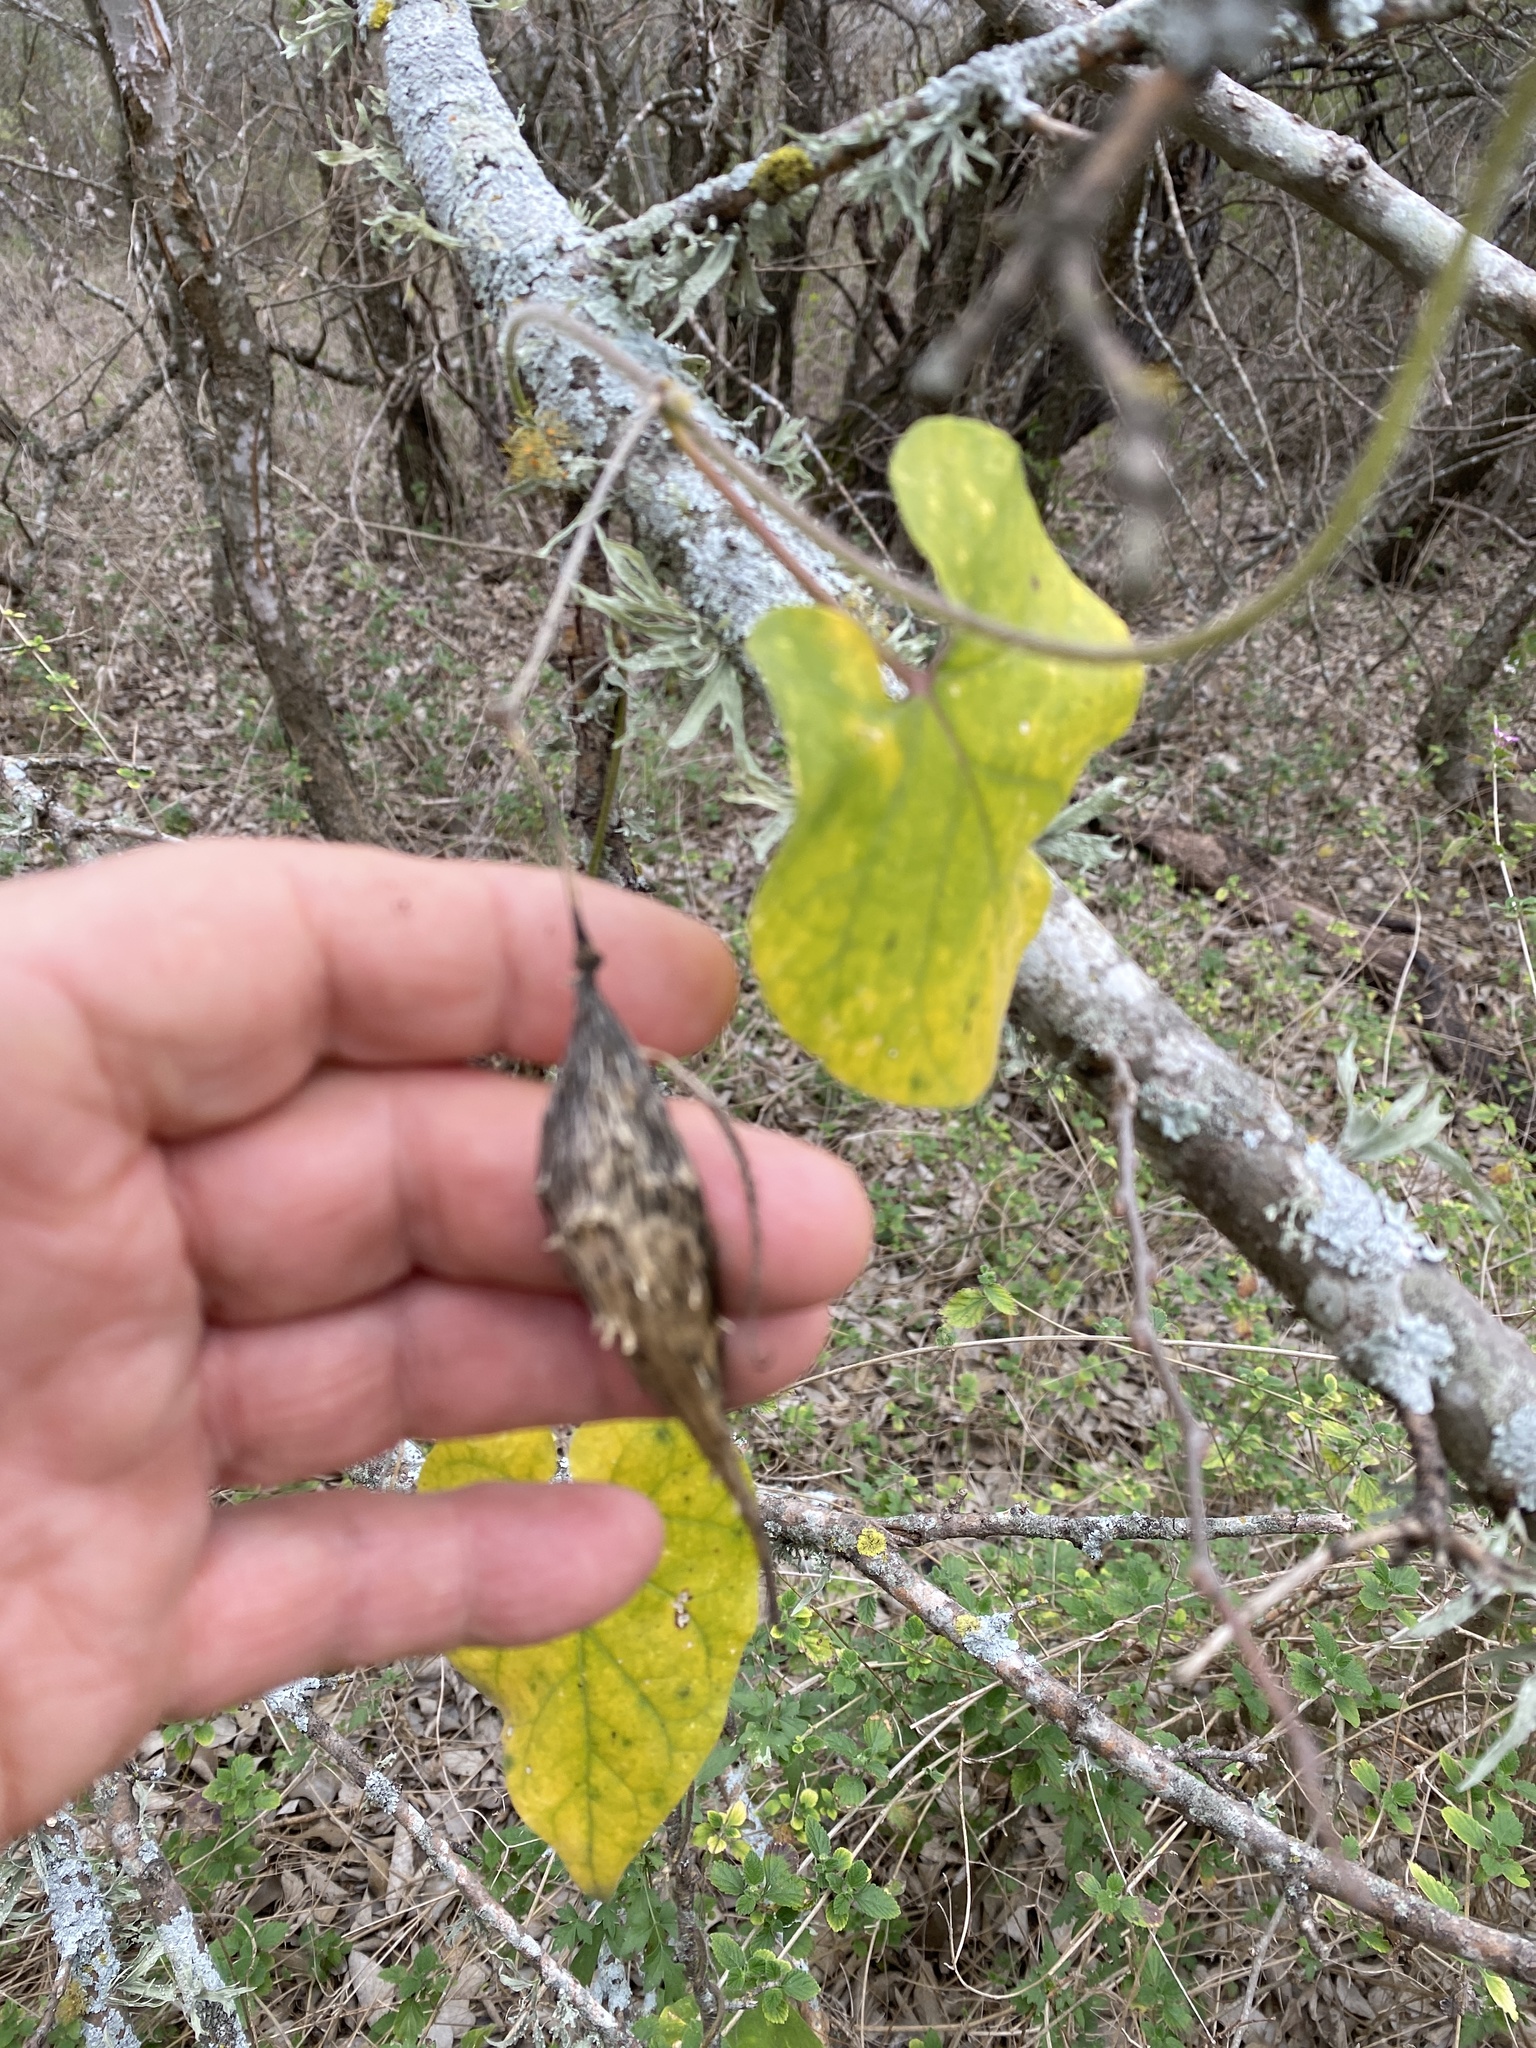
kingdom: Plantae
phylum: Tracheophyta
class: Magnoliopsida
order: Gentianales
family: Apocynaceae
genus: Dictyanthus
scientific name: Dictyanthus reticulatus
